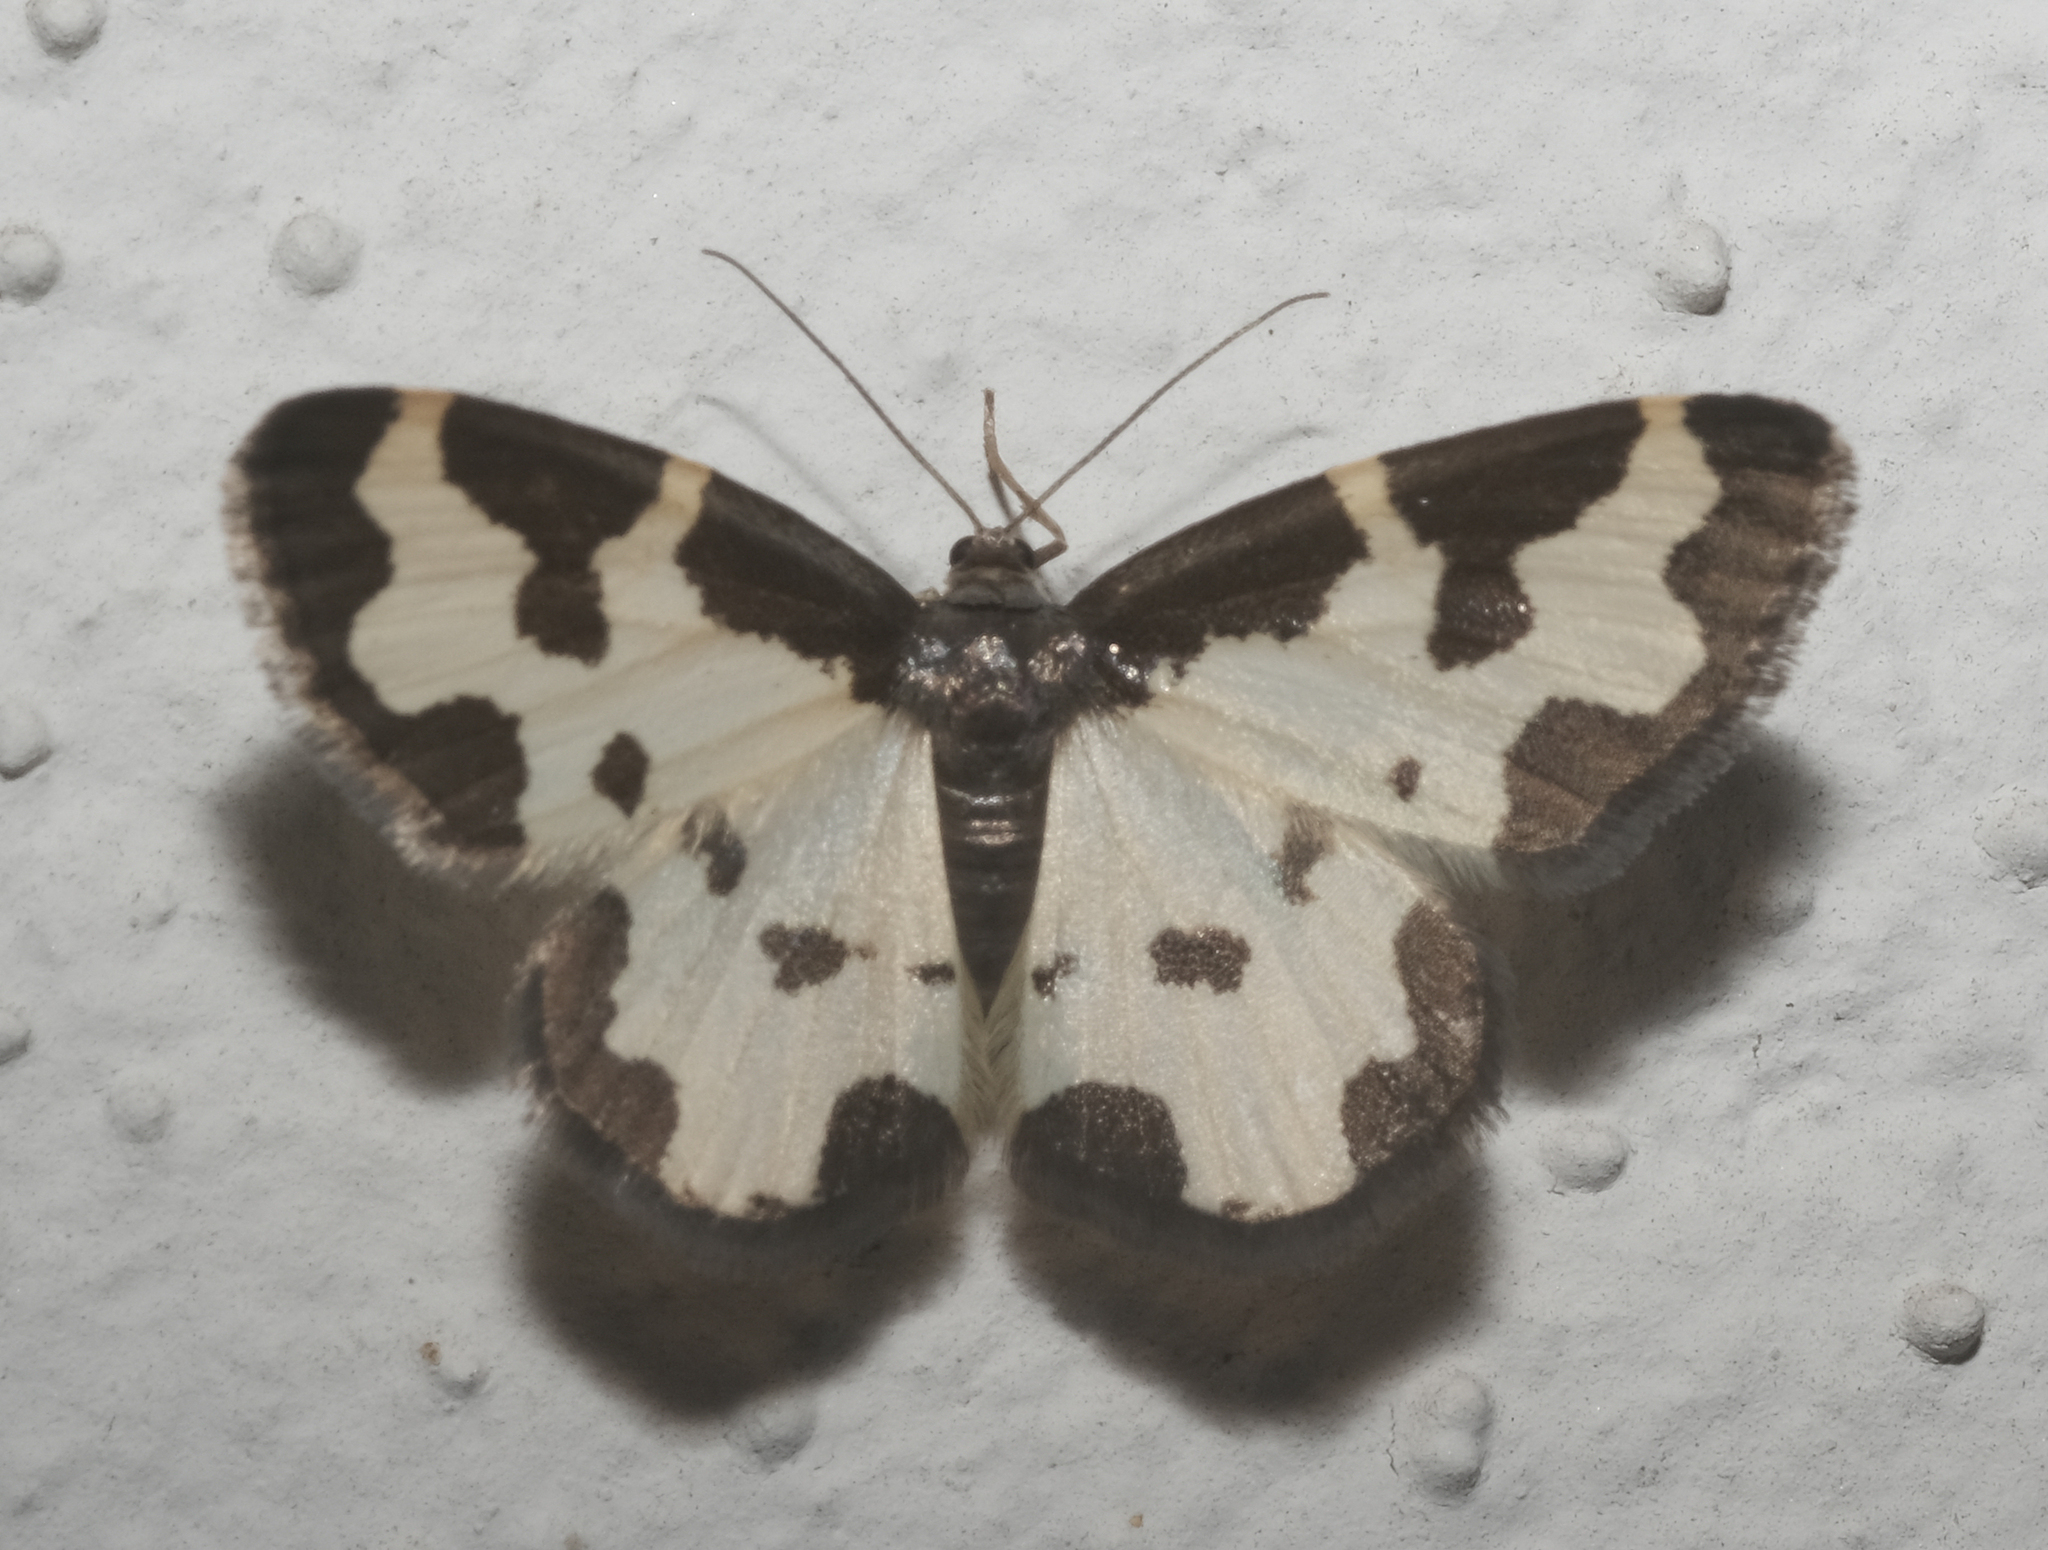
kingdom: Animalia
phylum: Arthropoda
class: Insecta
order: Lepidoptera
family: Geometridae
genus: Lomaspilis
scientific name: Lomaspilis marginata
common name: Clouded border
